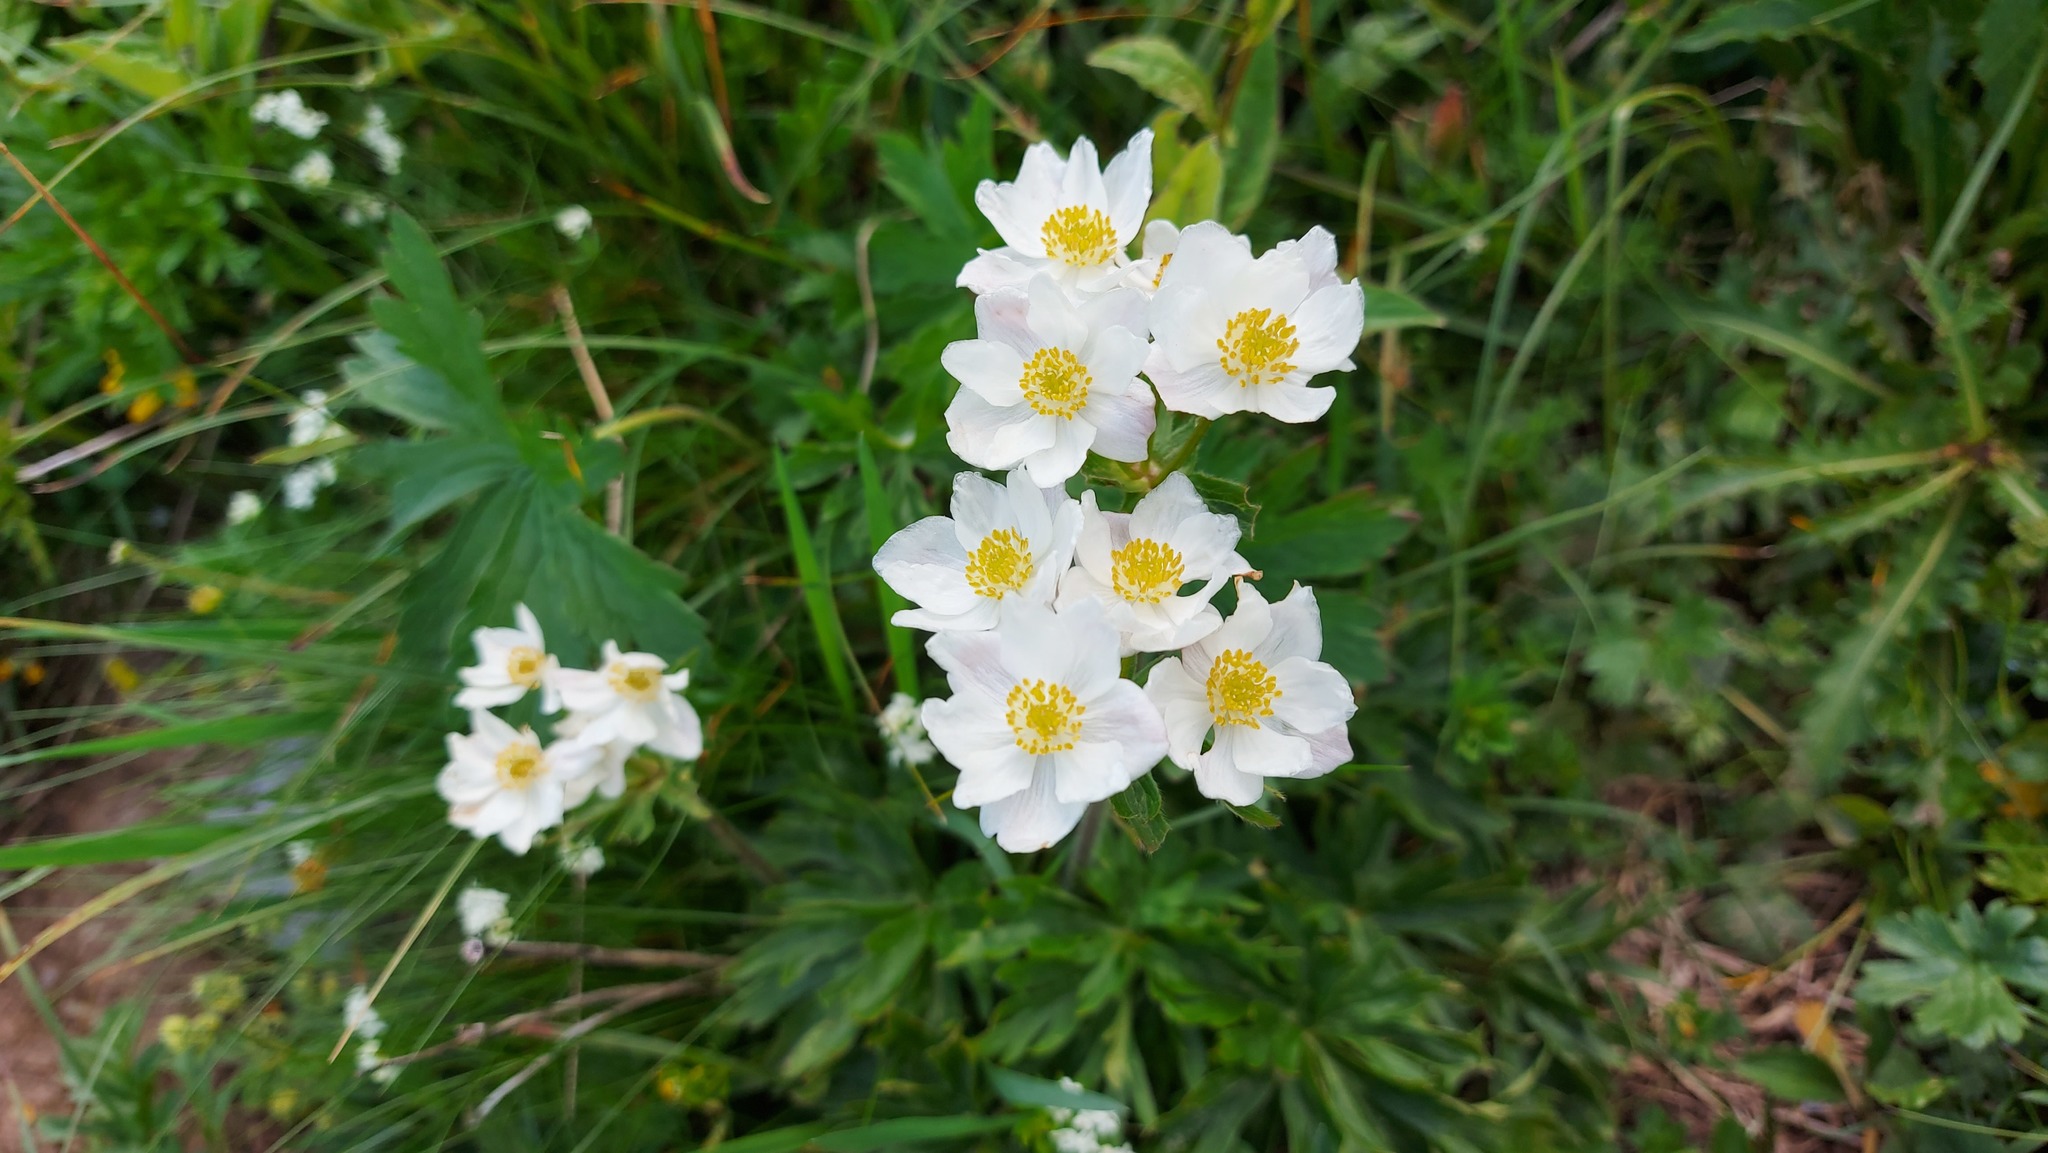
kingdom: Plantae
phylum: Tracheophyta
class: Magnoliopsida
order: Ranunculales
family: Ranunculaceae
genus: Anemonastrum
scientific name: Anemonastrum narcissiflorum
